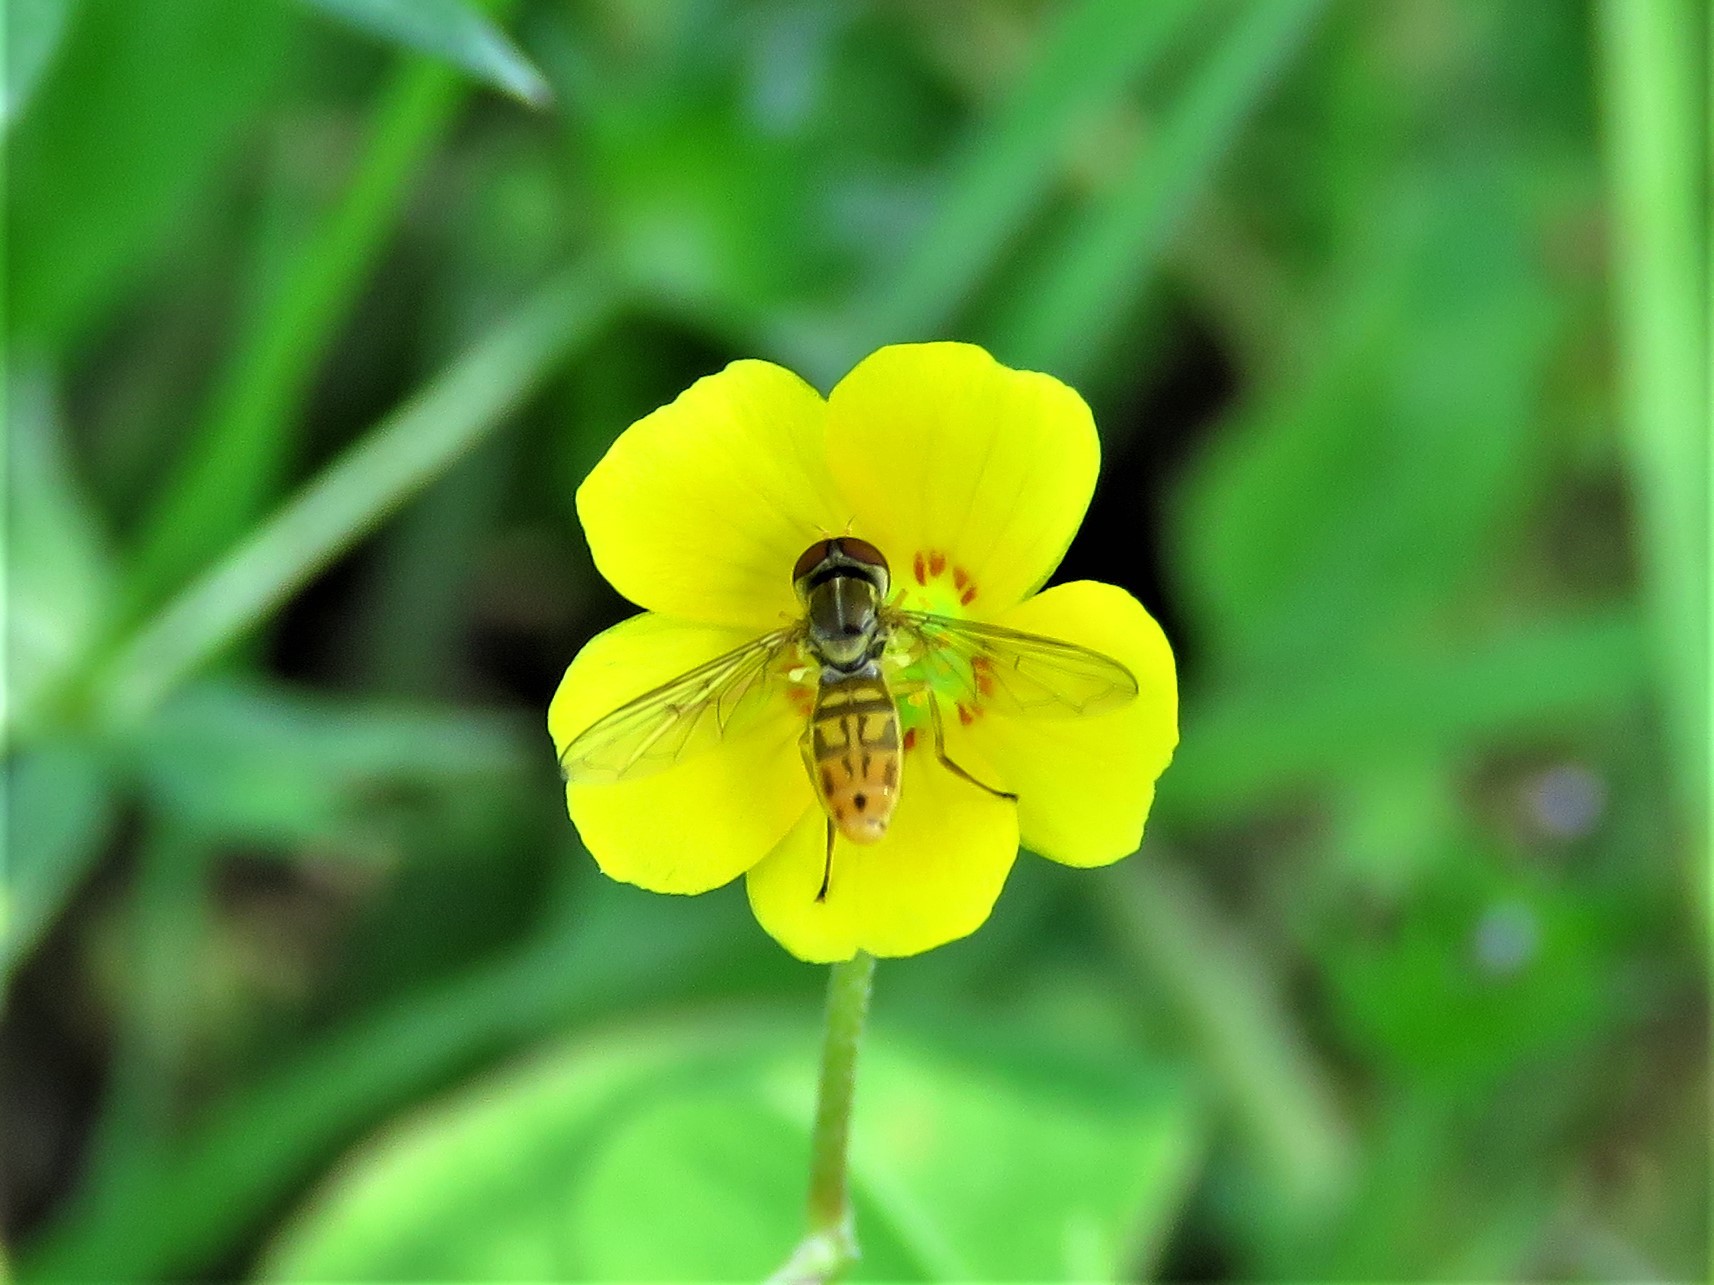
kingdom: Animalia
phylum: Arthropoda
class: Insecta
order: Diptera
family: Syrphidae
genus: Toxomerus
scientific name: Toxomerus marginatus
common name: Syrphid fly
